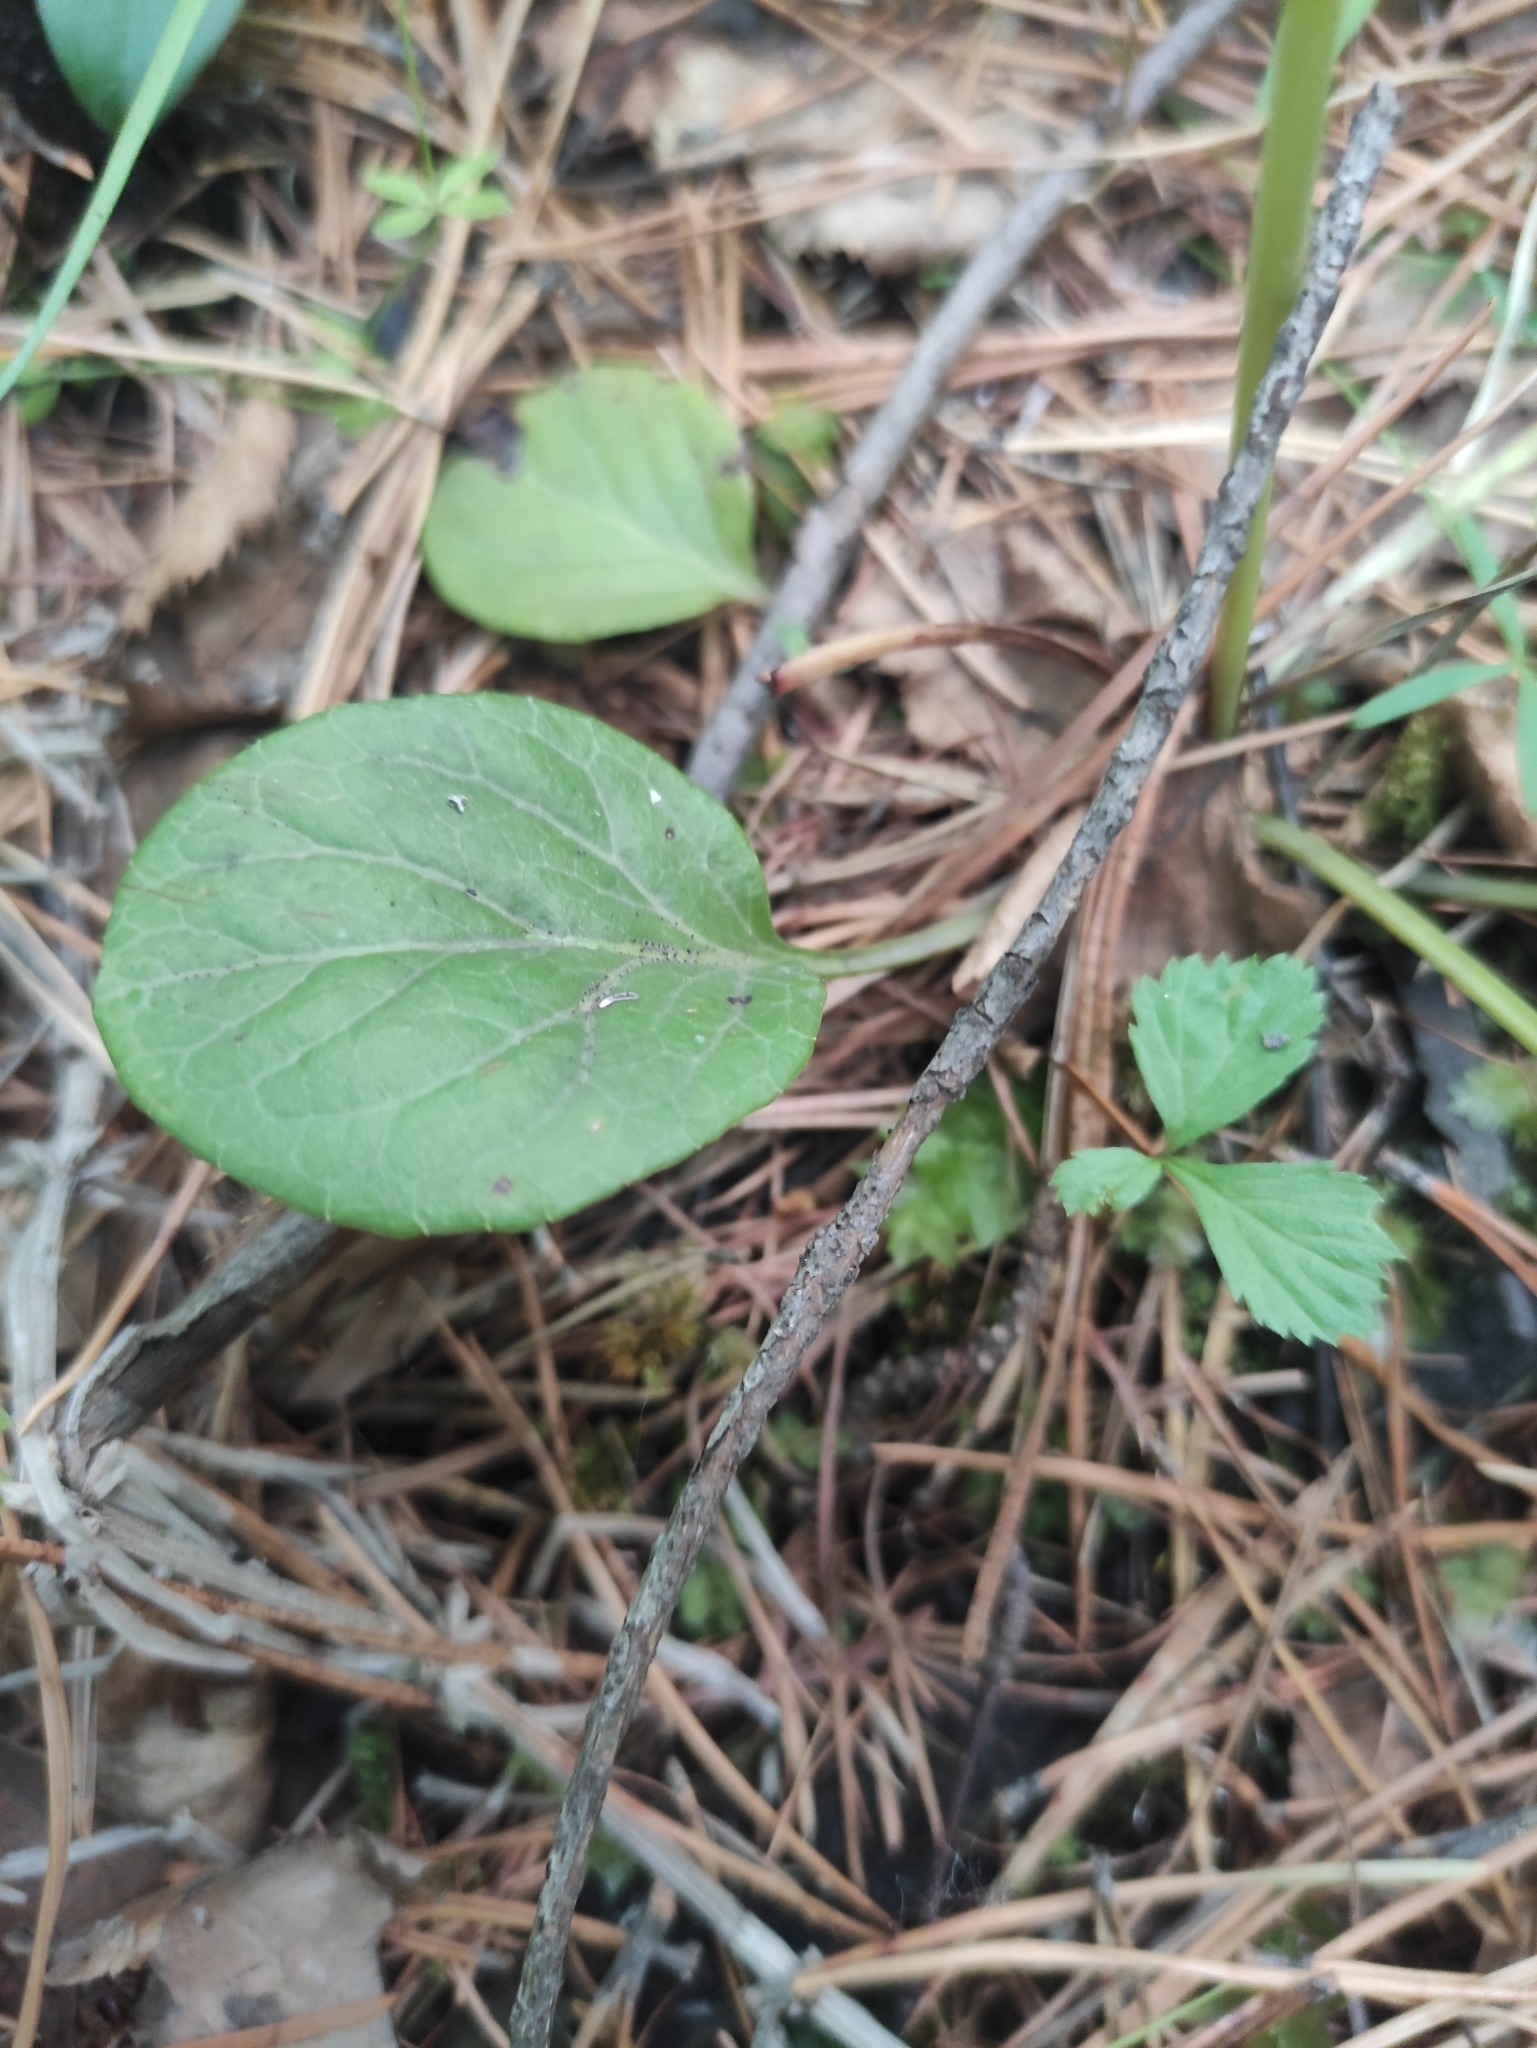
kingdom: Plantae
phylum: Tracheophyta
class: Magnoliopsida
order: Ericales
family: Ericaceae
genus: Pyrola
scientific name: Pyrola rotundifolia
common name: Round-leaved wintergreen
